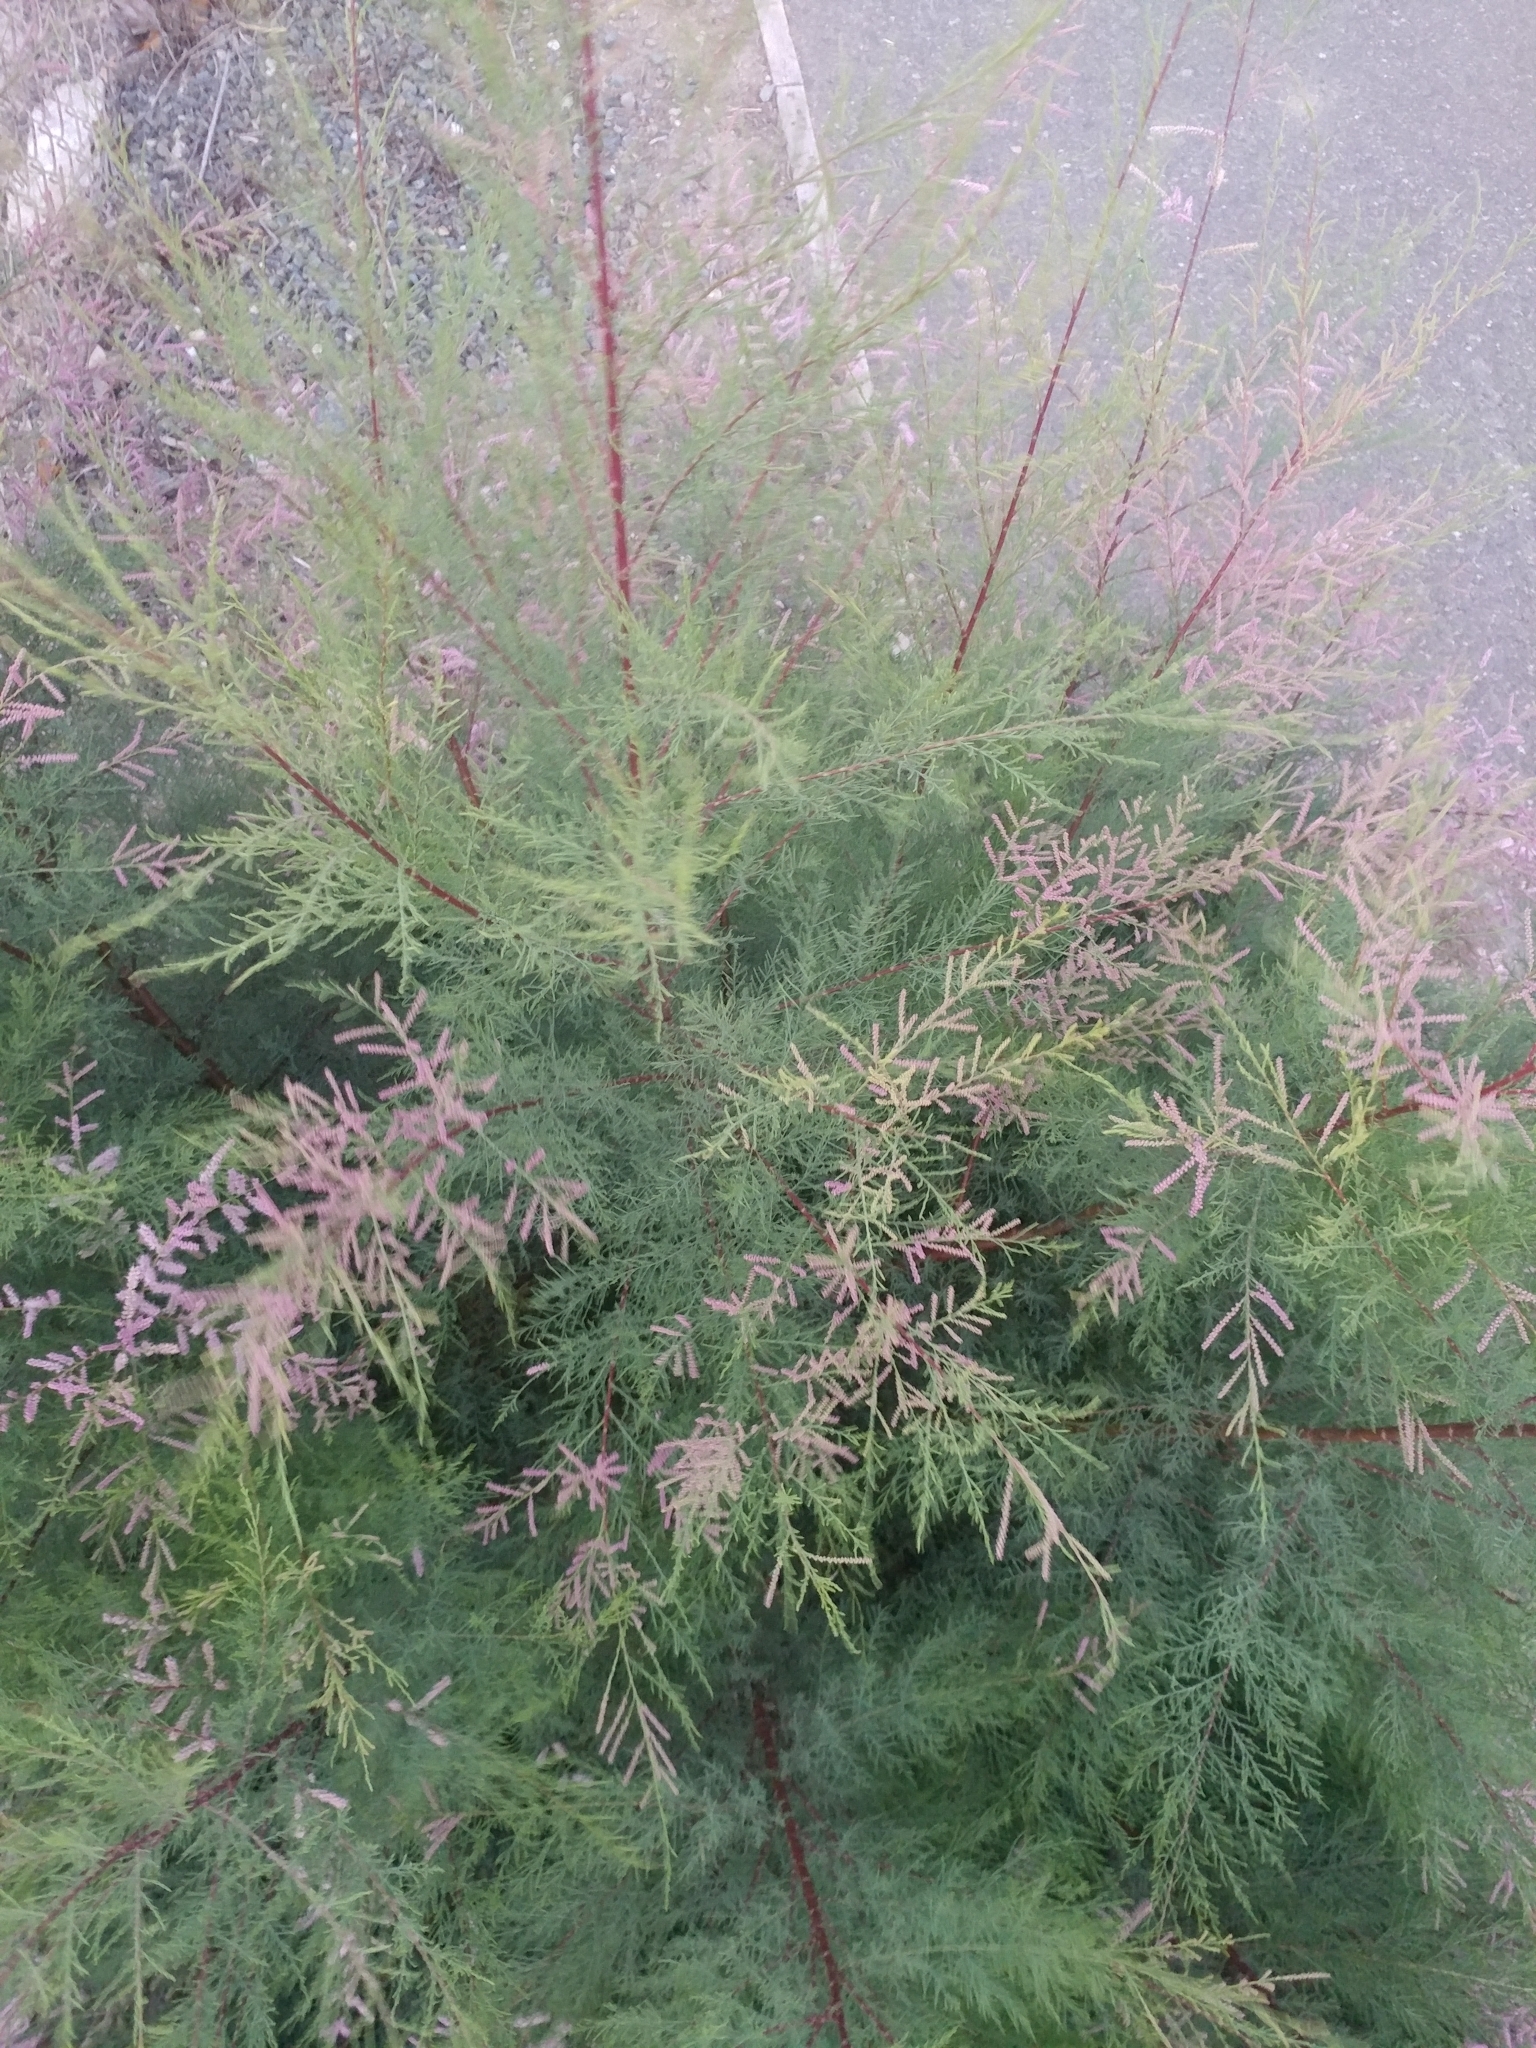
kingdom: Plantae
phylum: Tracheophyta
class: Magnoliopsida
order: Caryophyllales
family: Tamaricaceae
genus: Tamarix
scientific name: Tamarix
